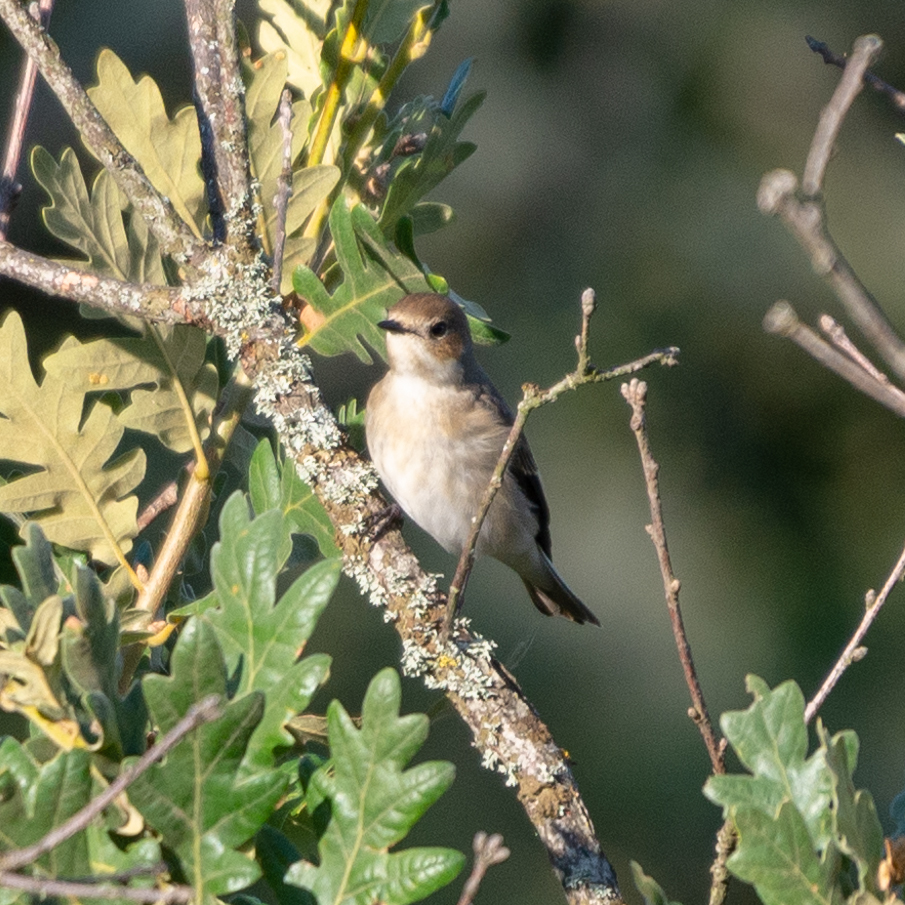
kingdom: Animalia
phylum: Chordata
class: Aves
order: Passeriformes
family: Muscicapidae
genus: Ficedula
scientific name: Ficedula hypoleuca
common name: European pied flycatcher
